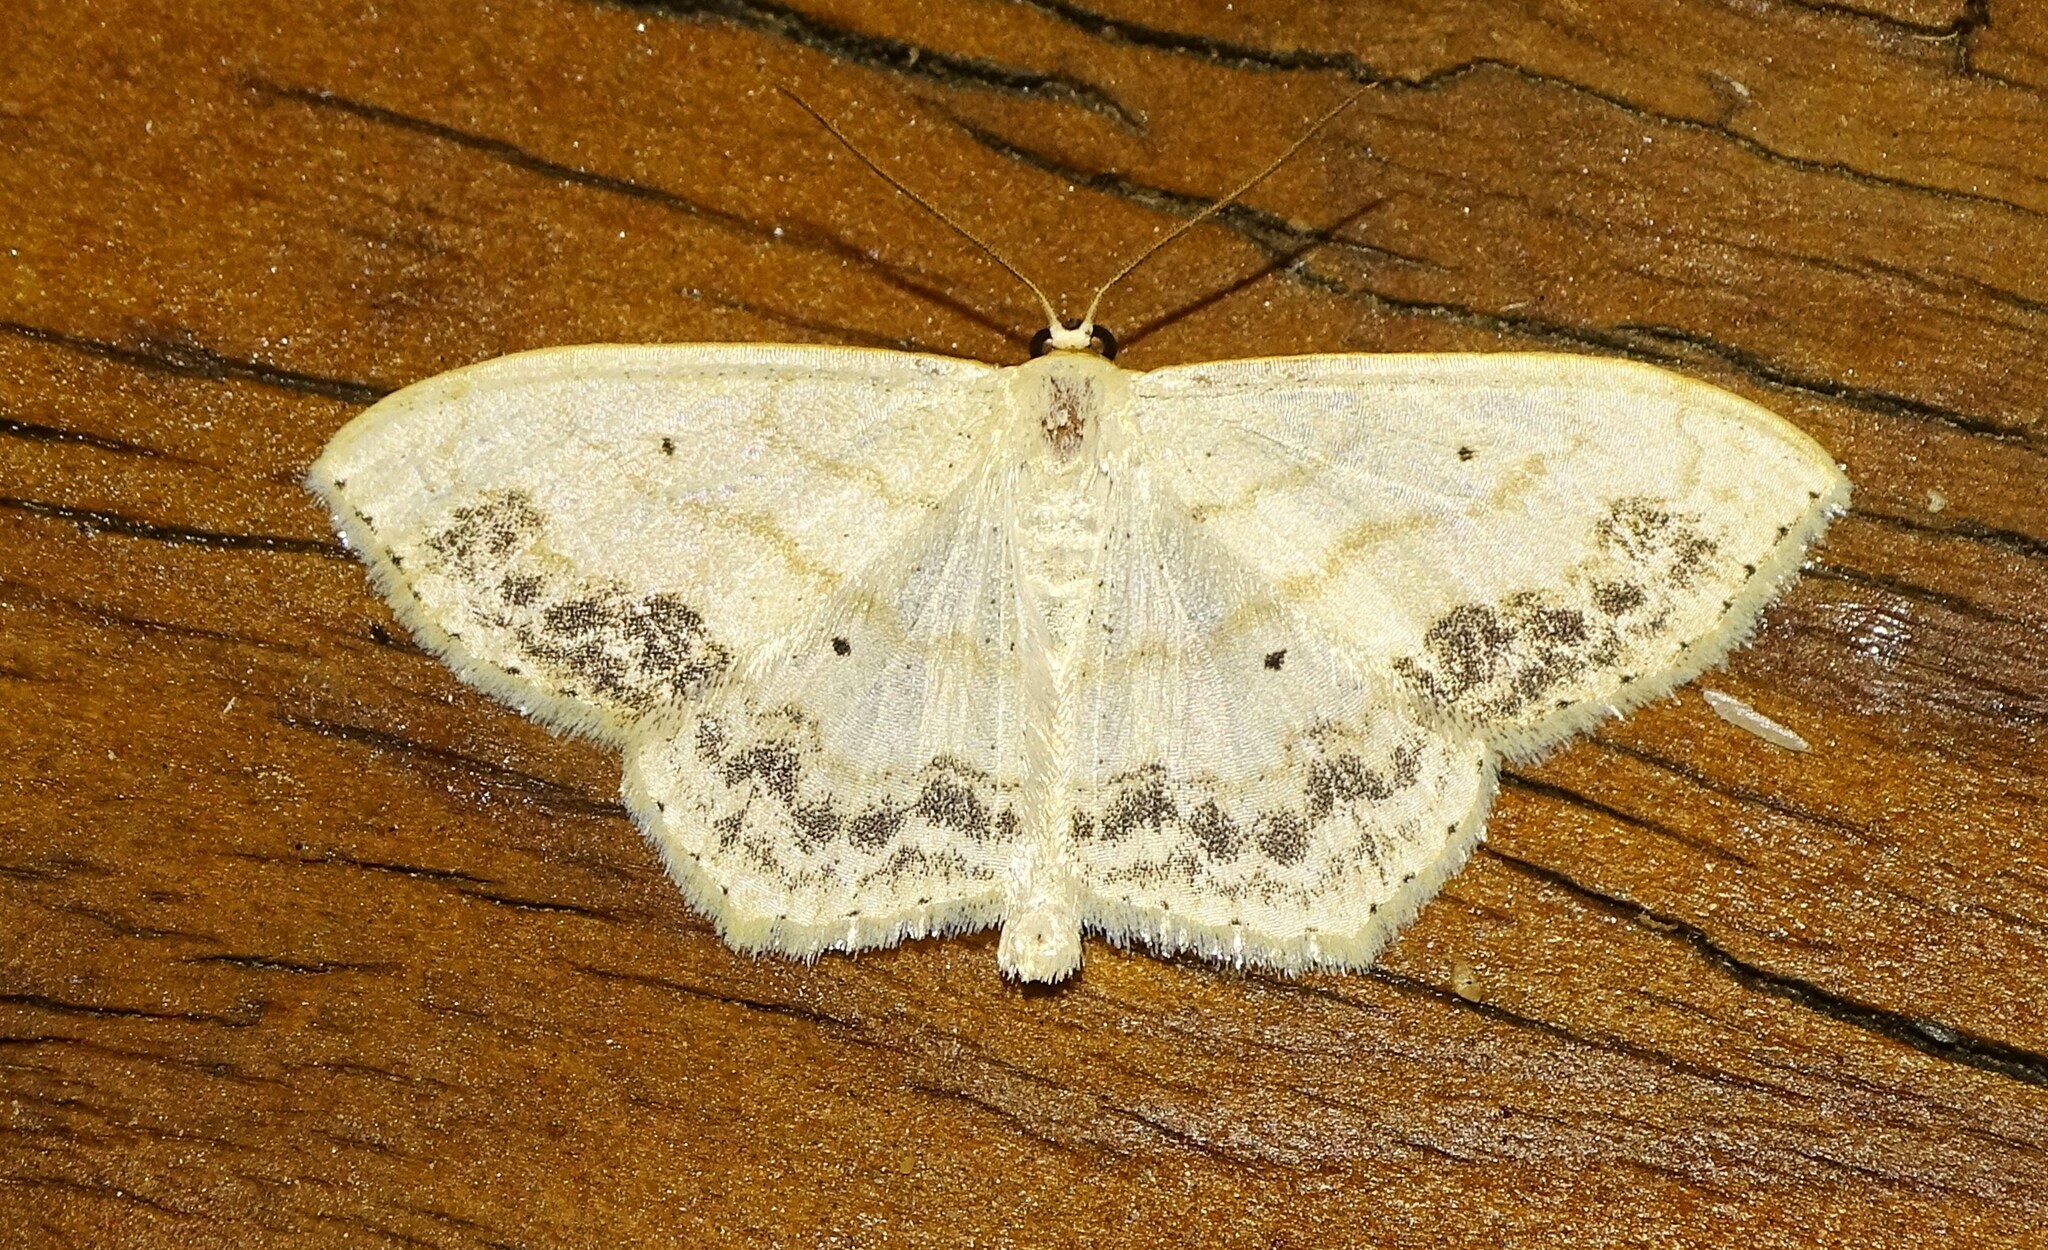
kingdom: Animalia
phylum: Arthropoda
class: Insecta
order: Lepidoptera
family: Geometridae
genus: Scopula
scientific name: Scopula limboundata
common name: Large lace border
